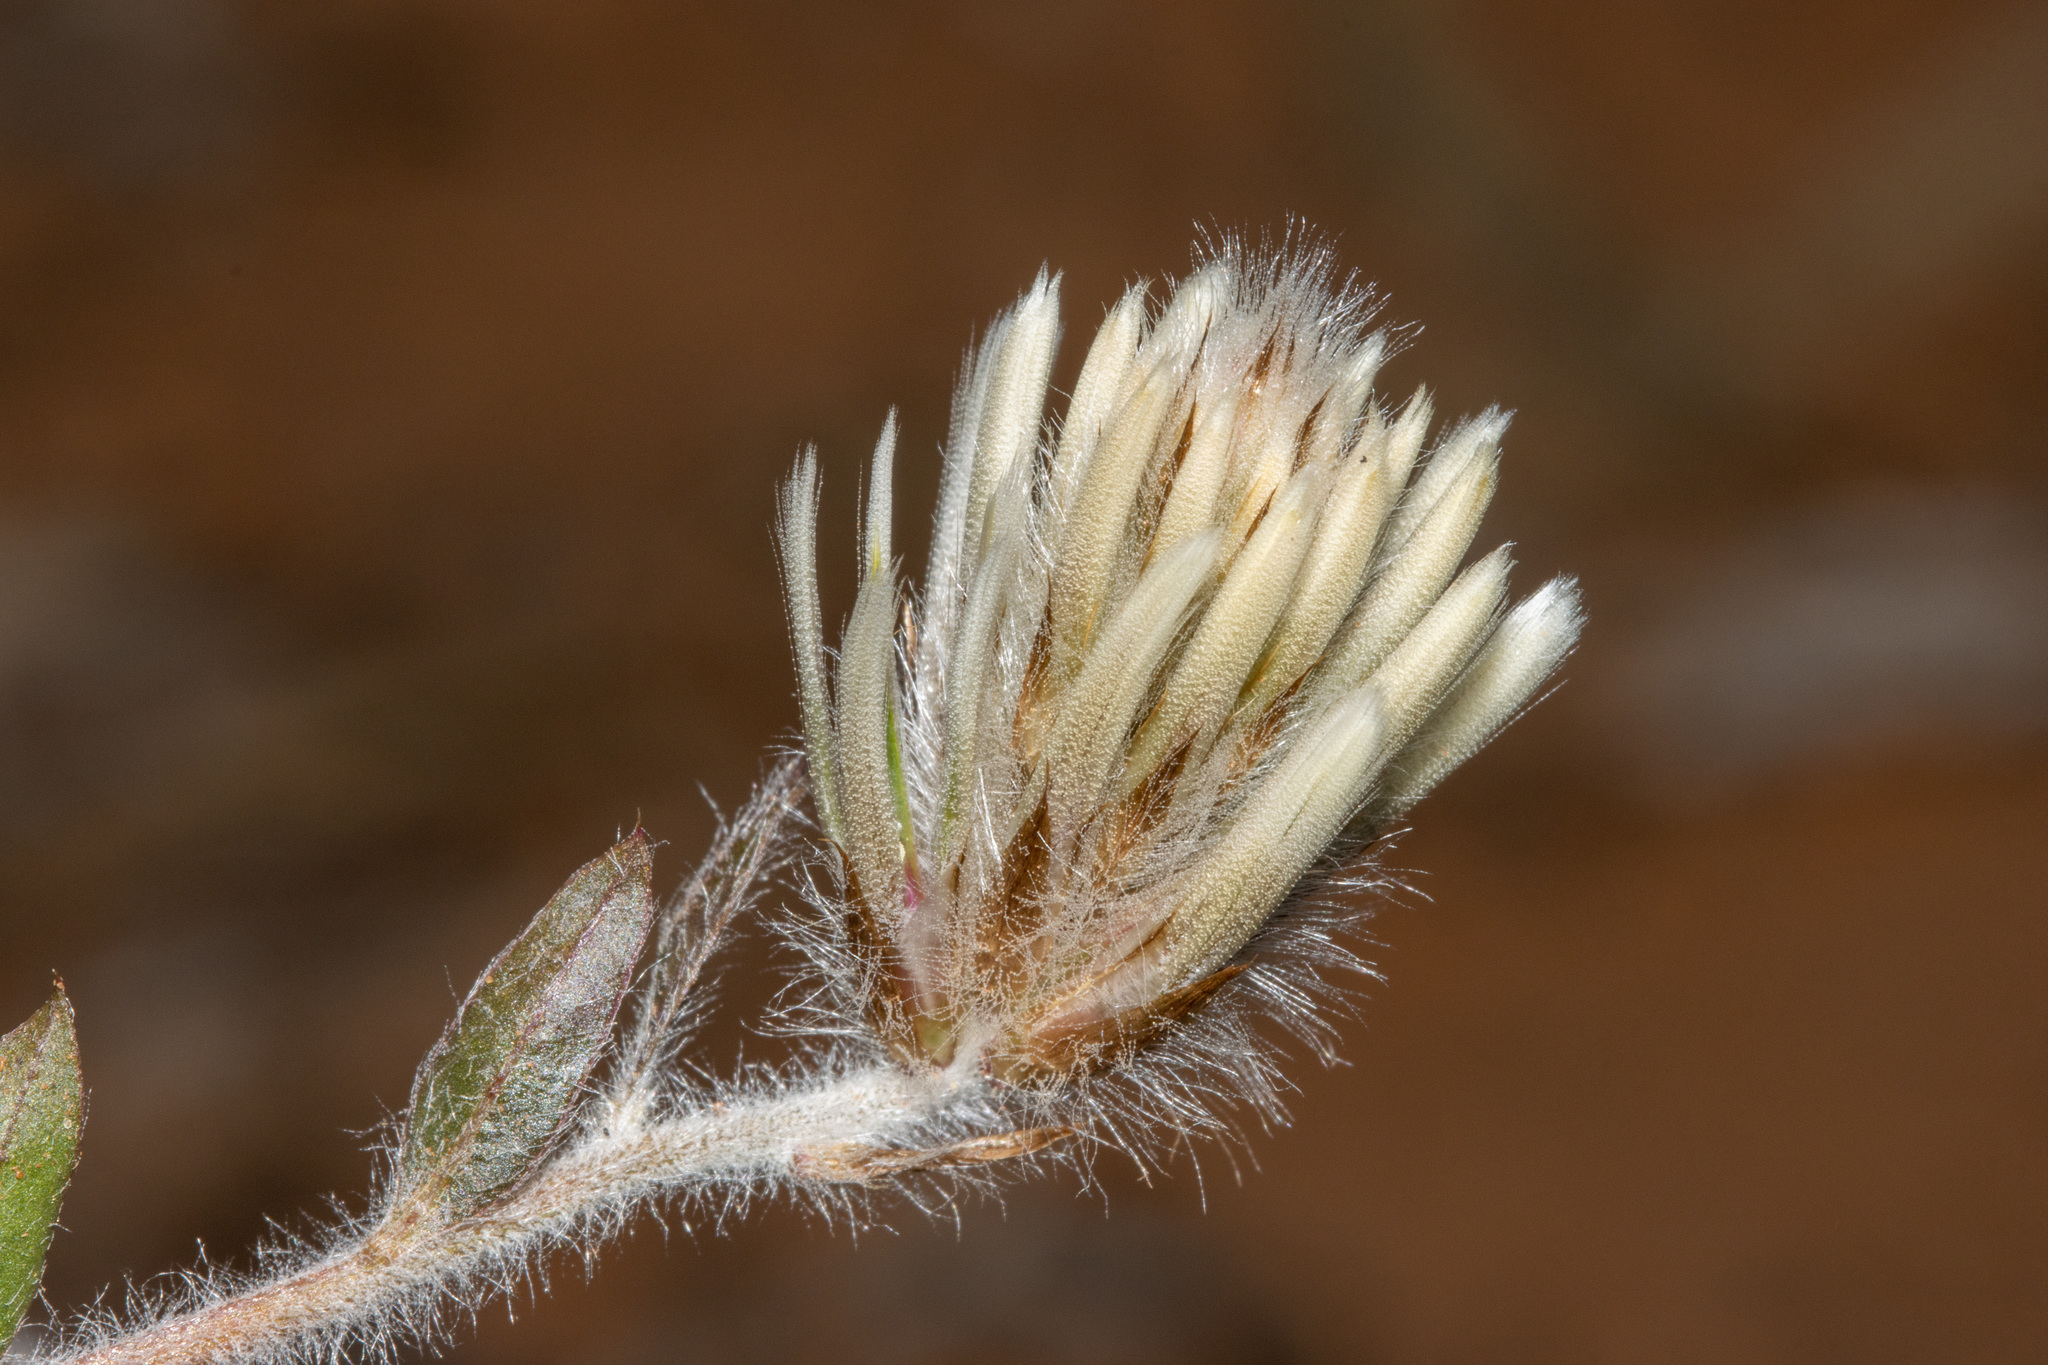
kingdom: Plantae
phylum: Tracheophyta
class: Magnoliopsida
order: Caryophyllales
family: Amaranthaceae
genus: Ptilotus
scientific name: Ptilotus seminudus
